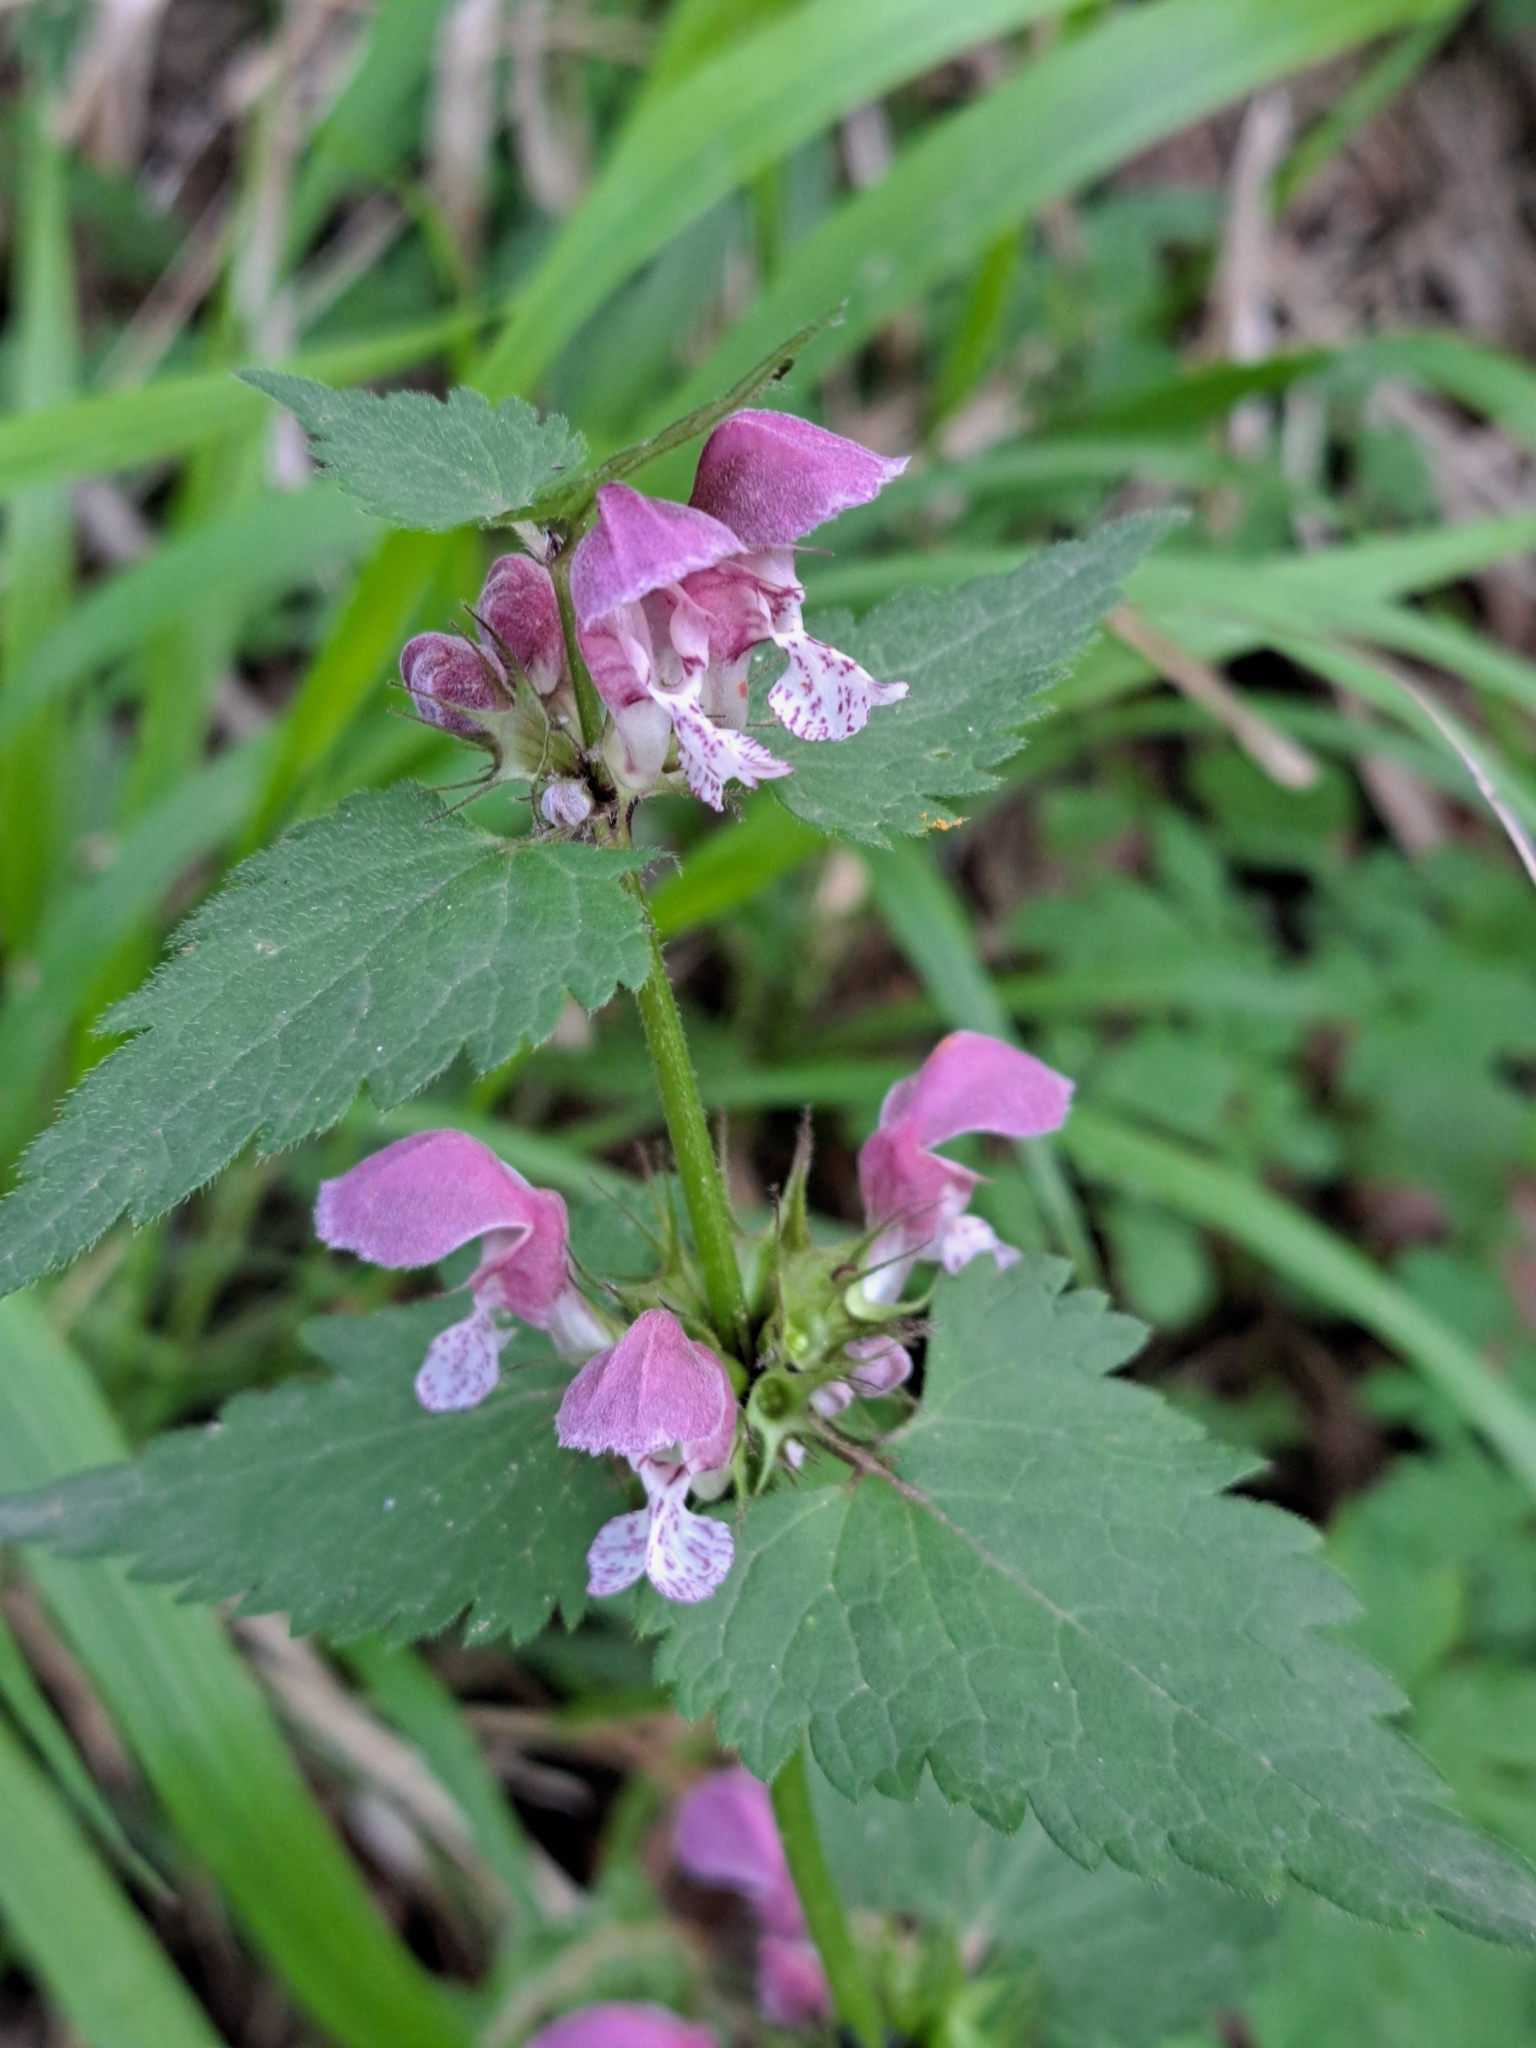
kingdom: Plantae
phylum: Tracheophyta
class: Magnoliopsida
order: Lamiales
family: Lamiaceae
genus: Lamium
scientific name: Lamium maculatum
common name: Spotted dead-nettle
